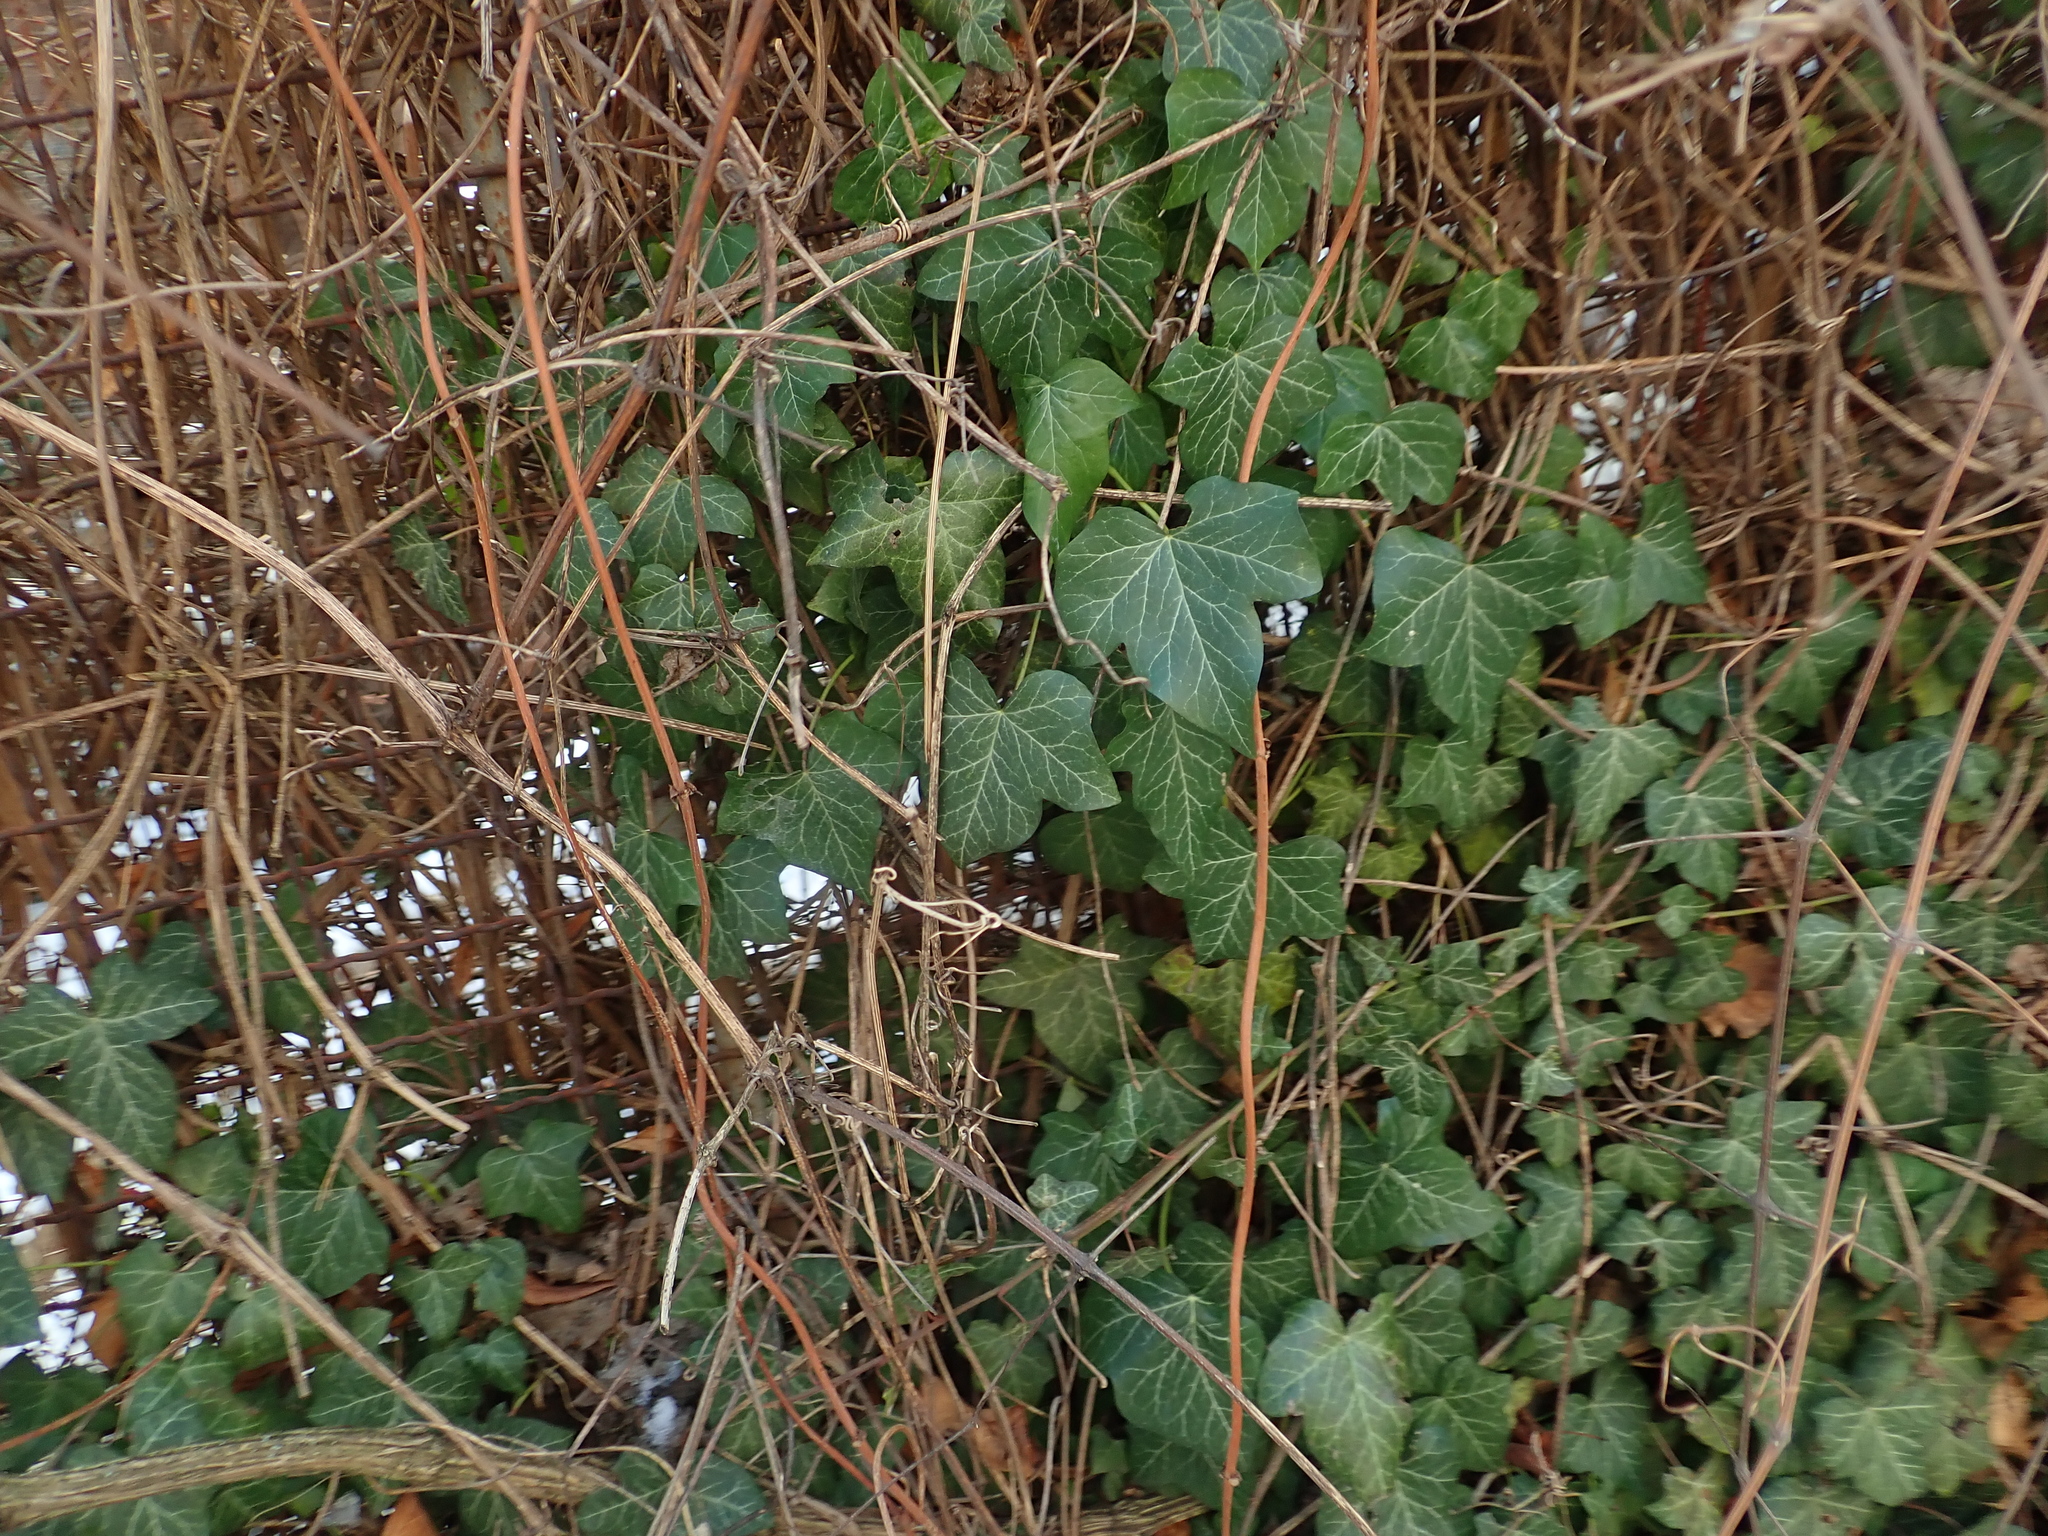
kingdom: Plantae
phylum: Tracheophyta
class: Magnoliopsida
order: Apiales
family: Araliaceae
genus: Hedera
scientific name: Hedera helix
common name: Ivy
